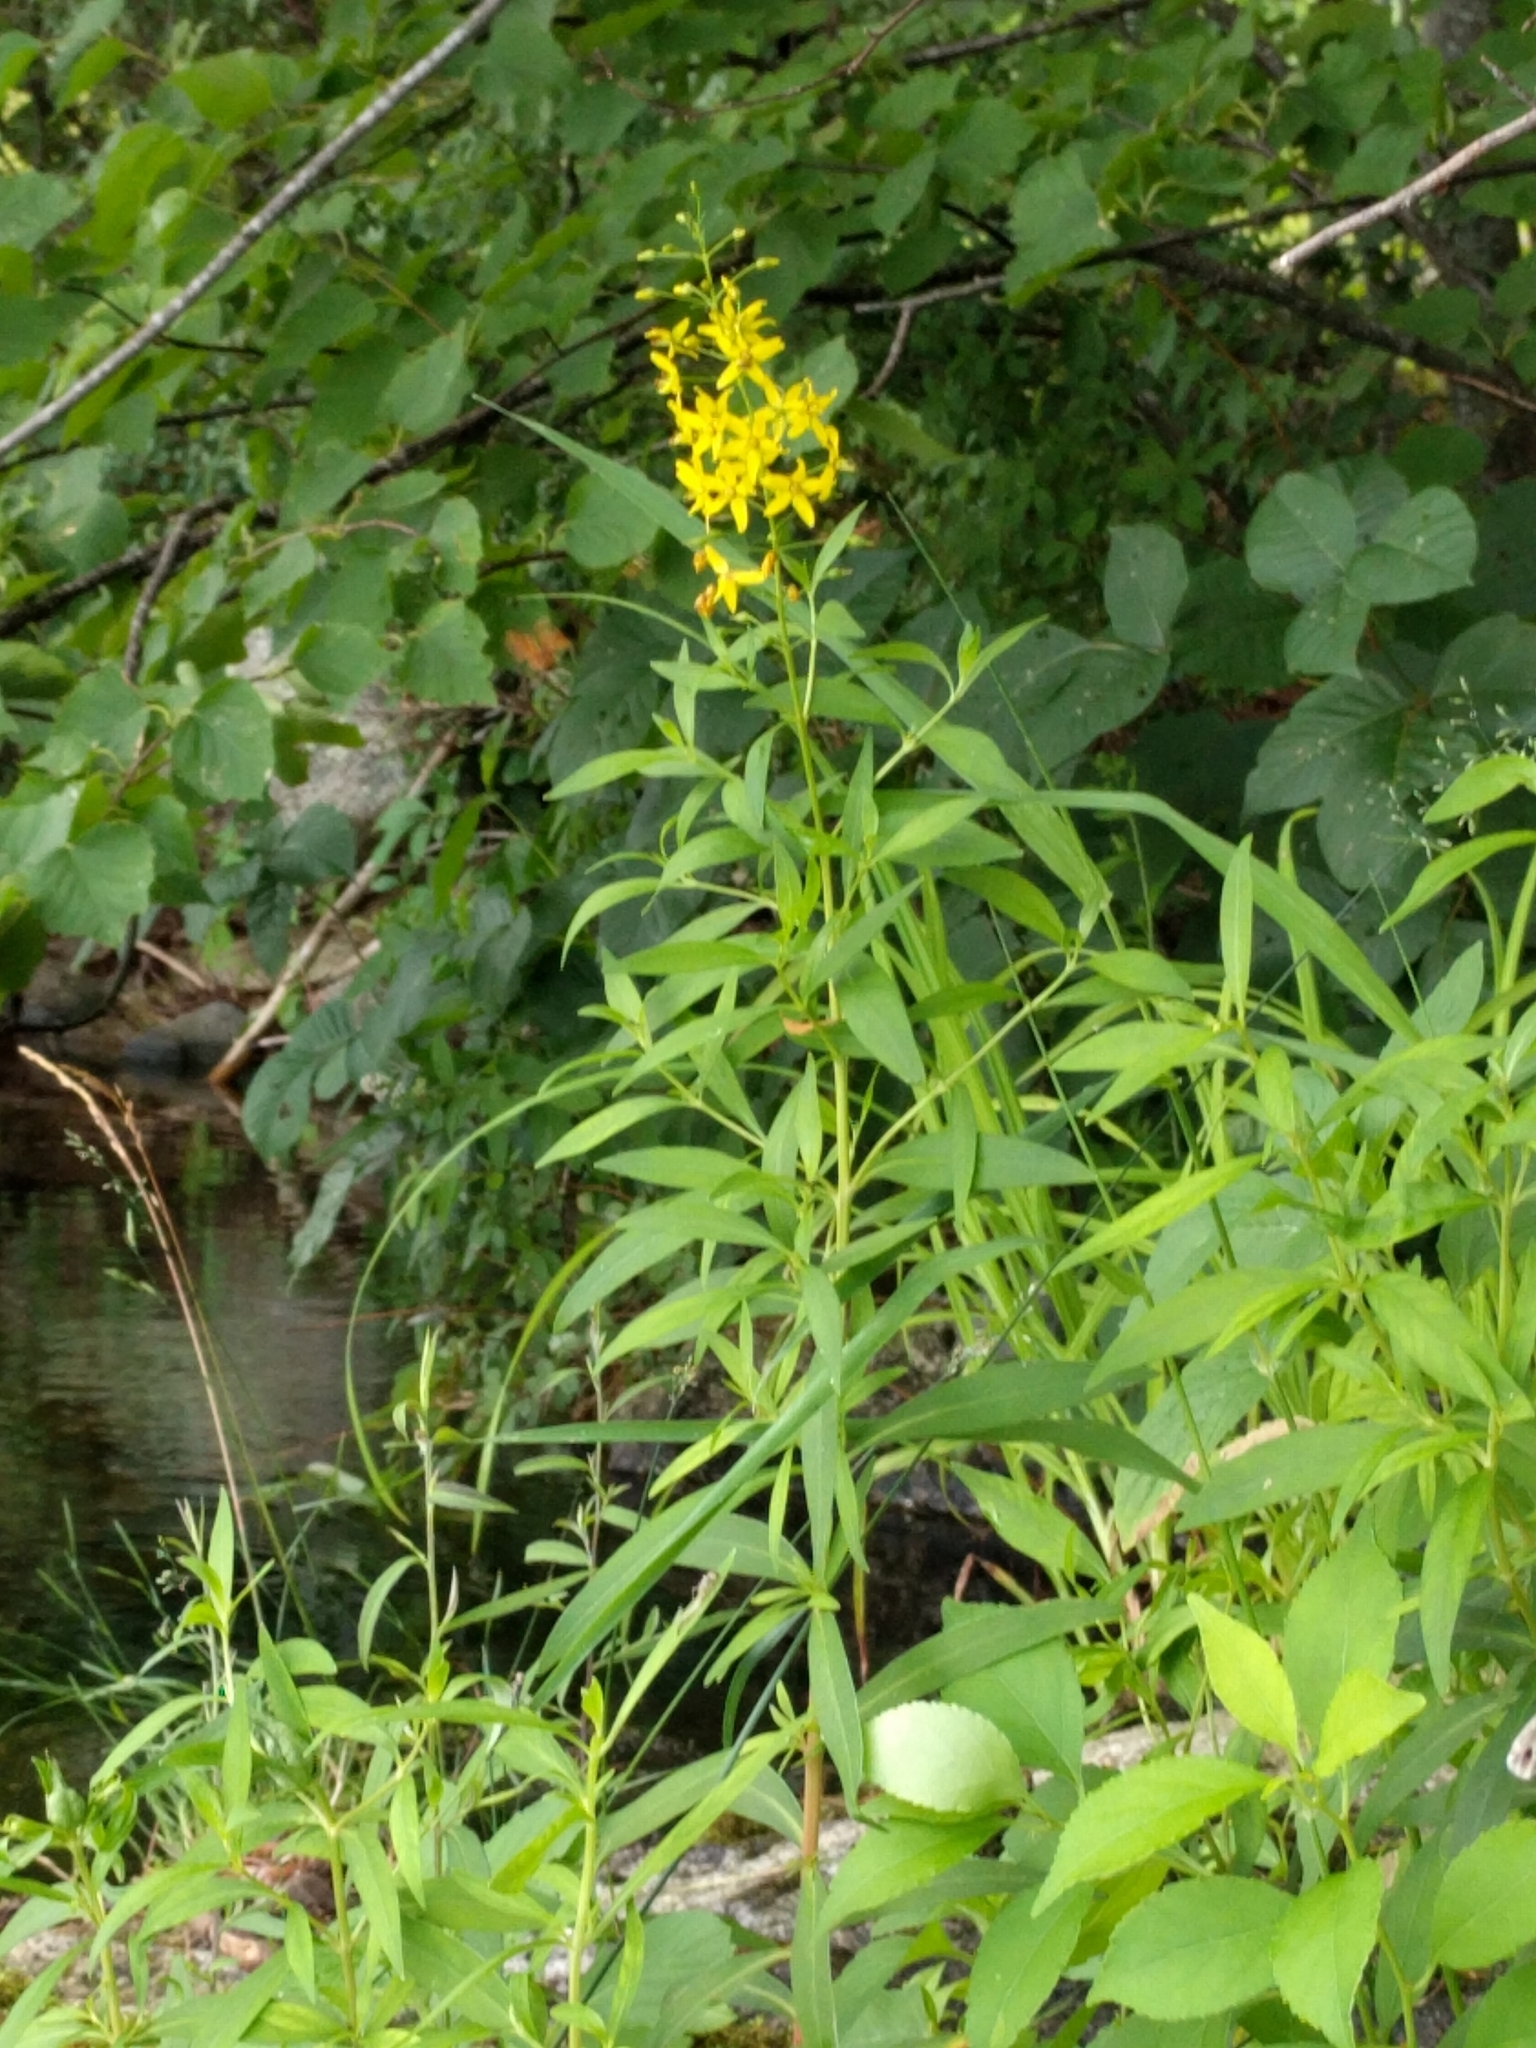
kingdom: Plantae
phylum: Tracheophyta
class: Magnoliopsida
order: Ericales
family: Primulaceae
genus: Lysimachia
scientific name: Lysimachia terrestris
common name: Lake loosestrife
